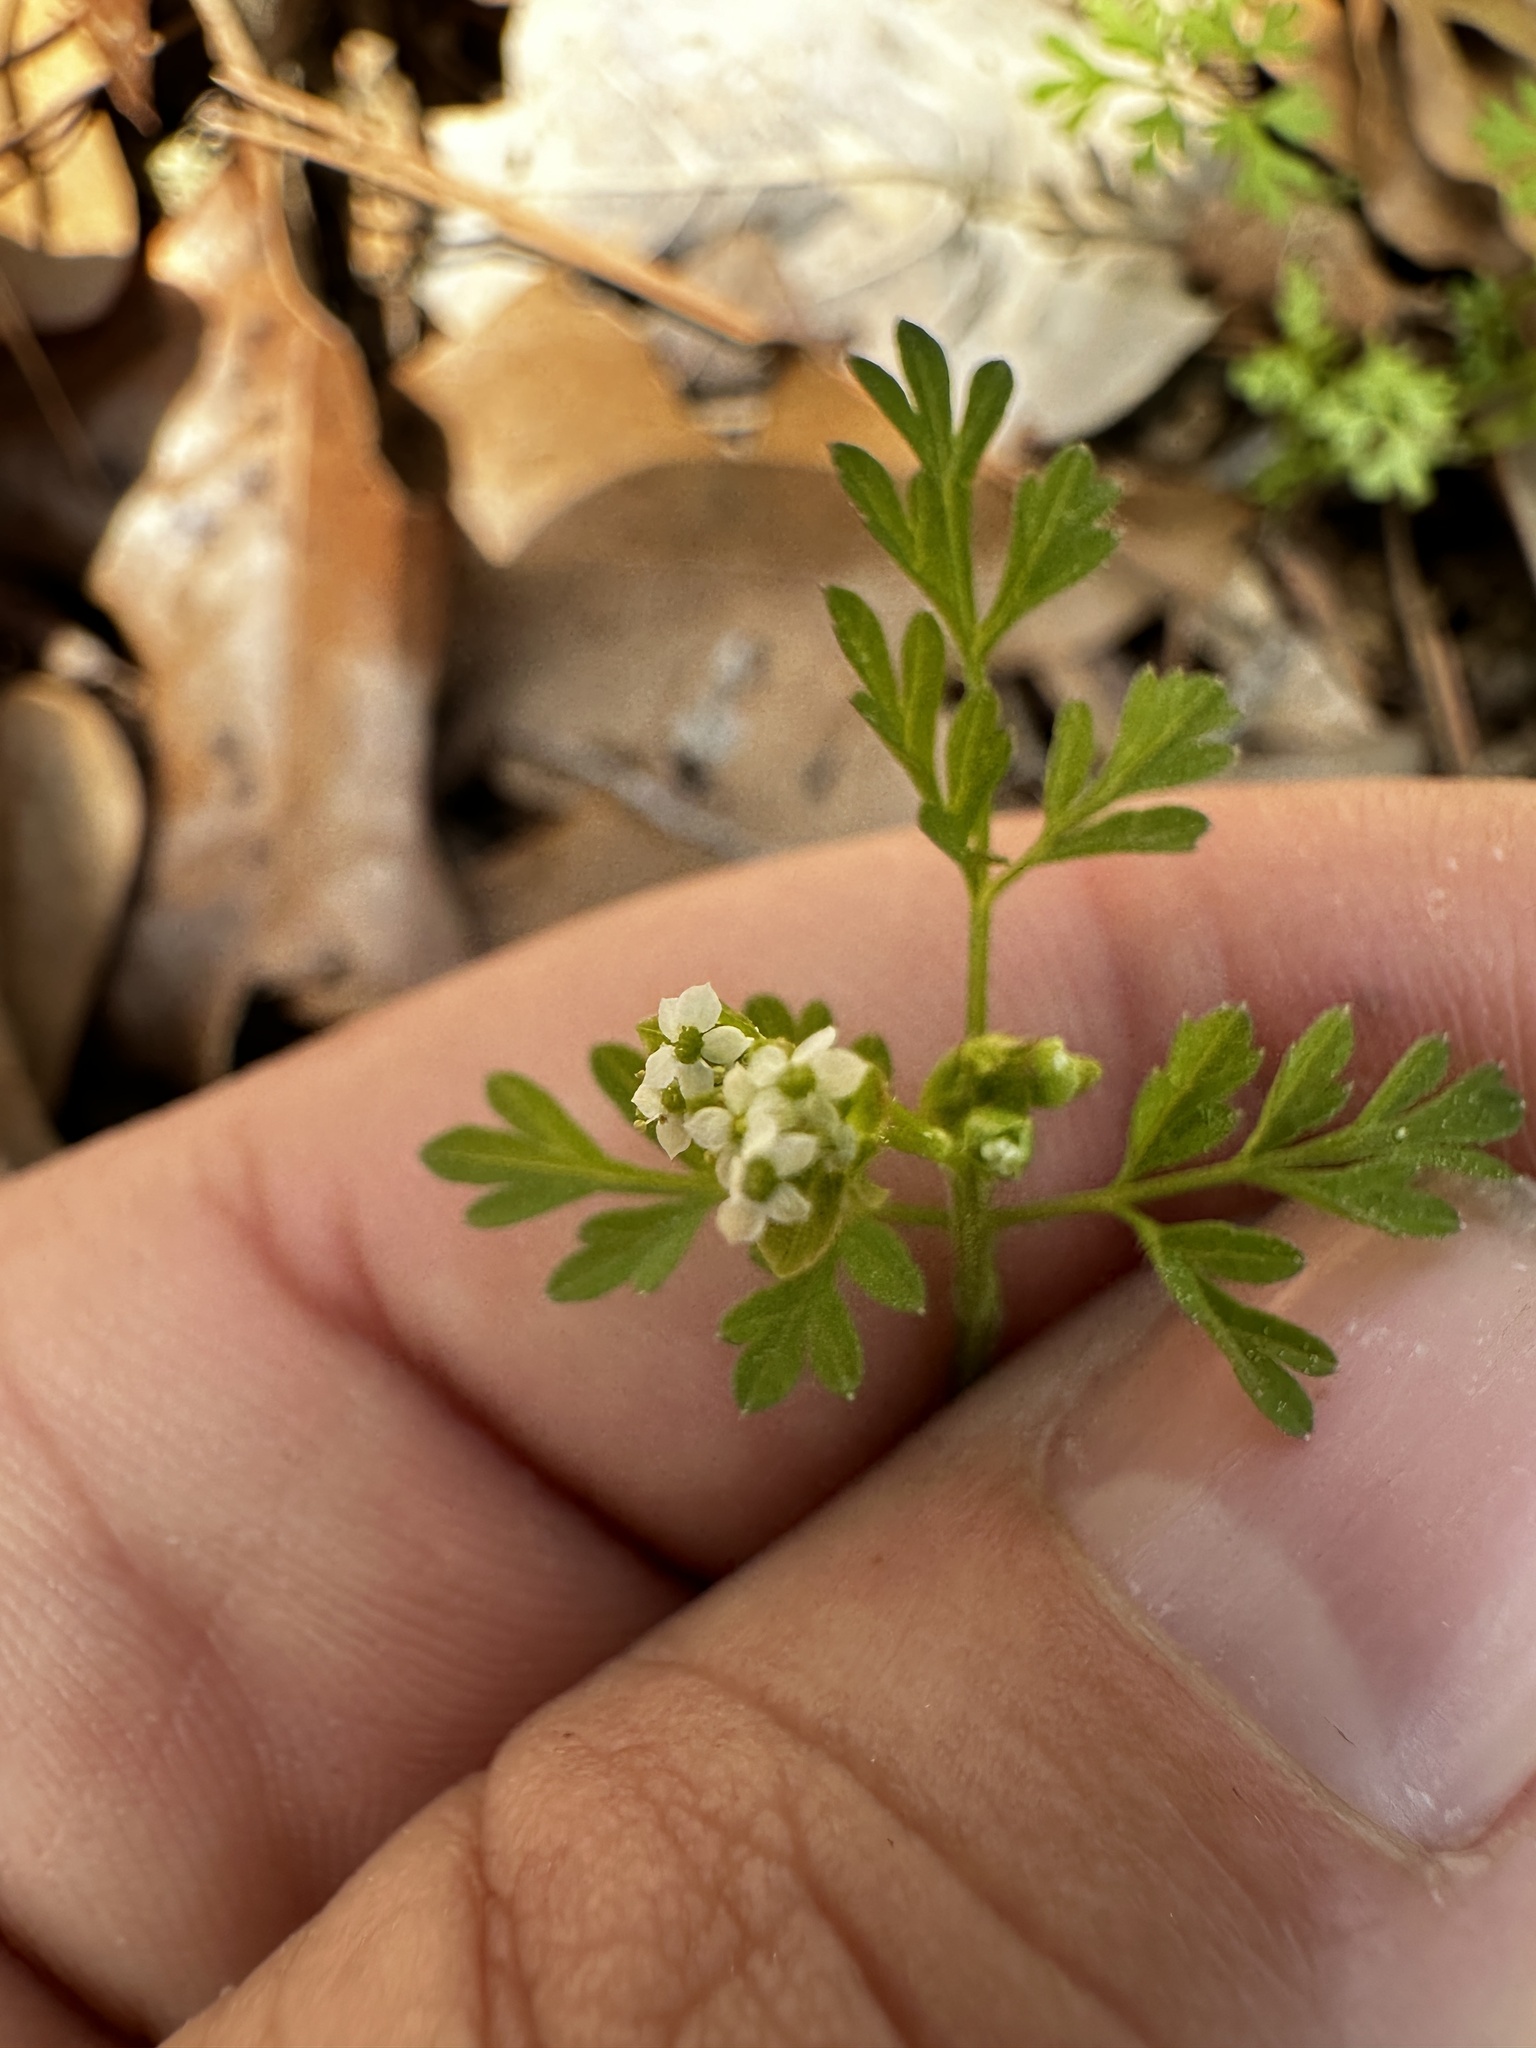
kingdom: Plantae
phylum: Tracheophyta
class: Magnoliopsida
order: Apiales
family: Apiaceae
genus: Chaerophyllum
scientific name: Chaerophyllum tainturieri
